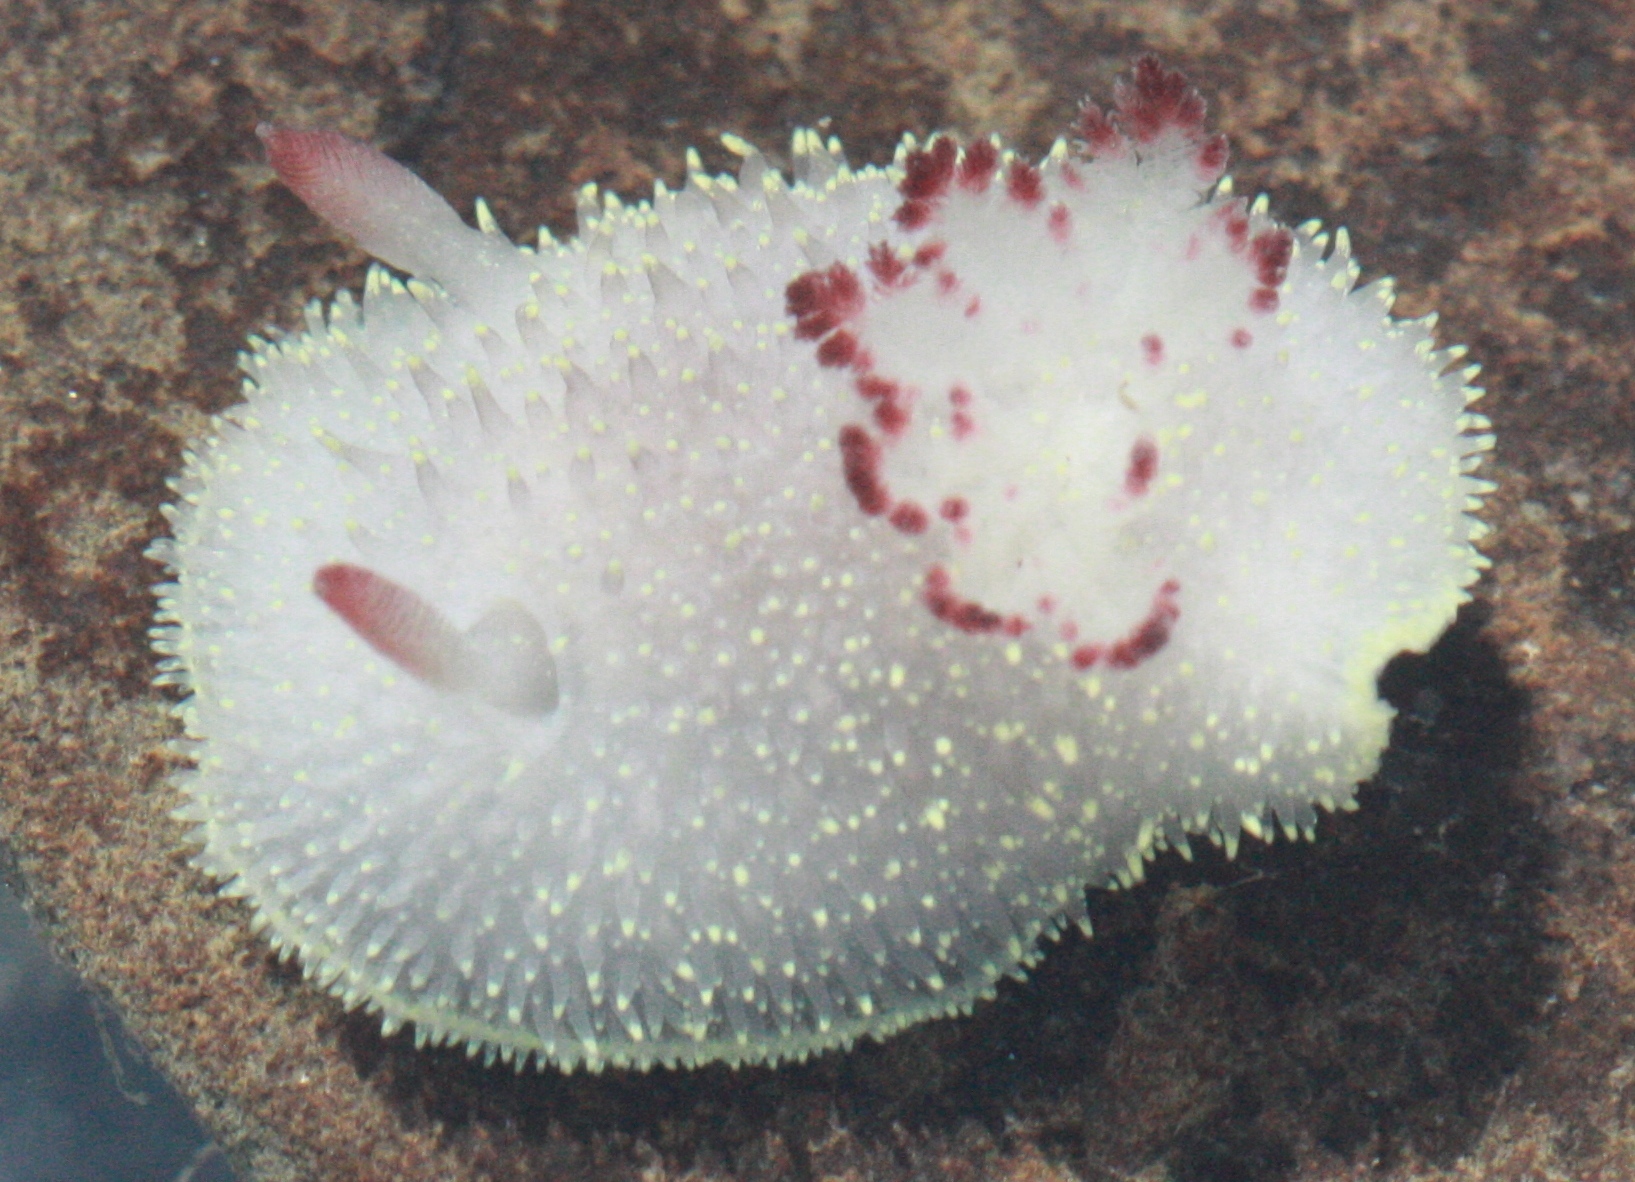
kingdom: Animalia
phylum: Mollusca
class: Gastropoda
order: Nudibranchia
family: Onchidorididae
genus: Acanthodoris
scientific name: Acanthodoris nanaimoensis
